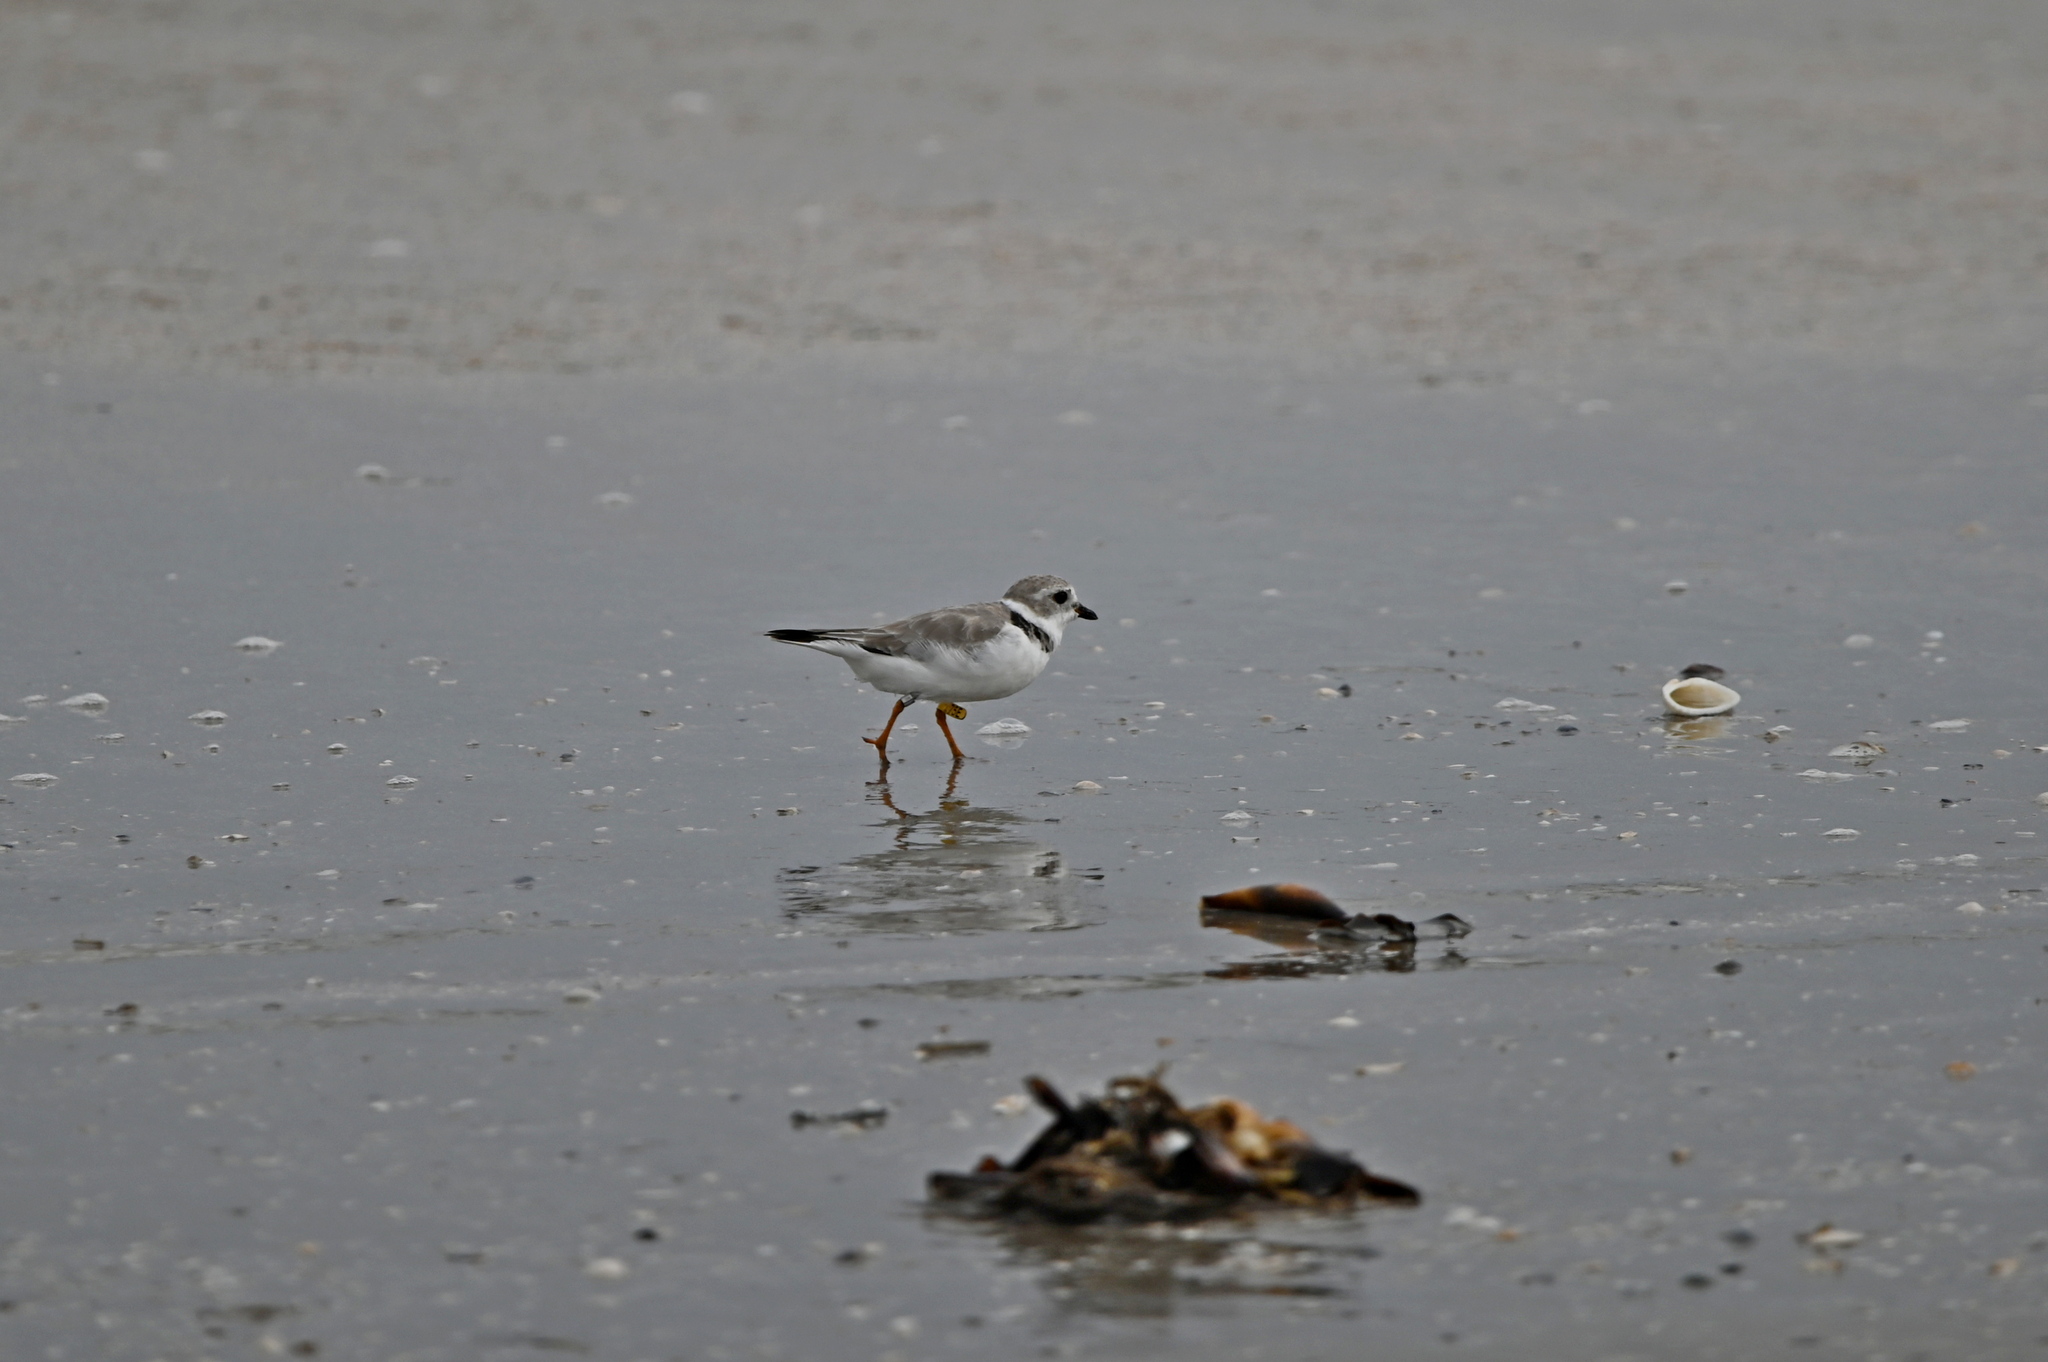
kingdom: Animalia
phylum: Chordata
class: Aves
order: Charadriiformes
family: Charadriidae
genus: Charadrius
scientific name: Charadrius melodus
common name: Piping plover
